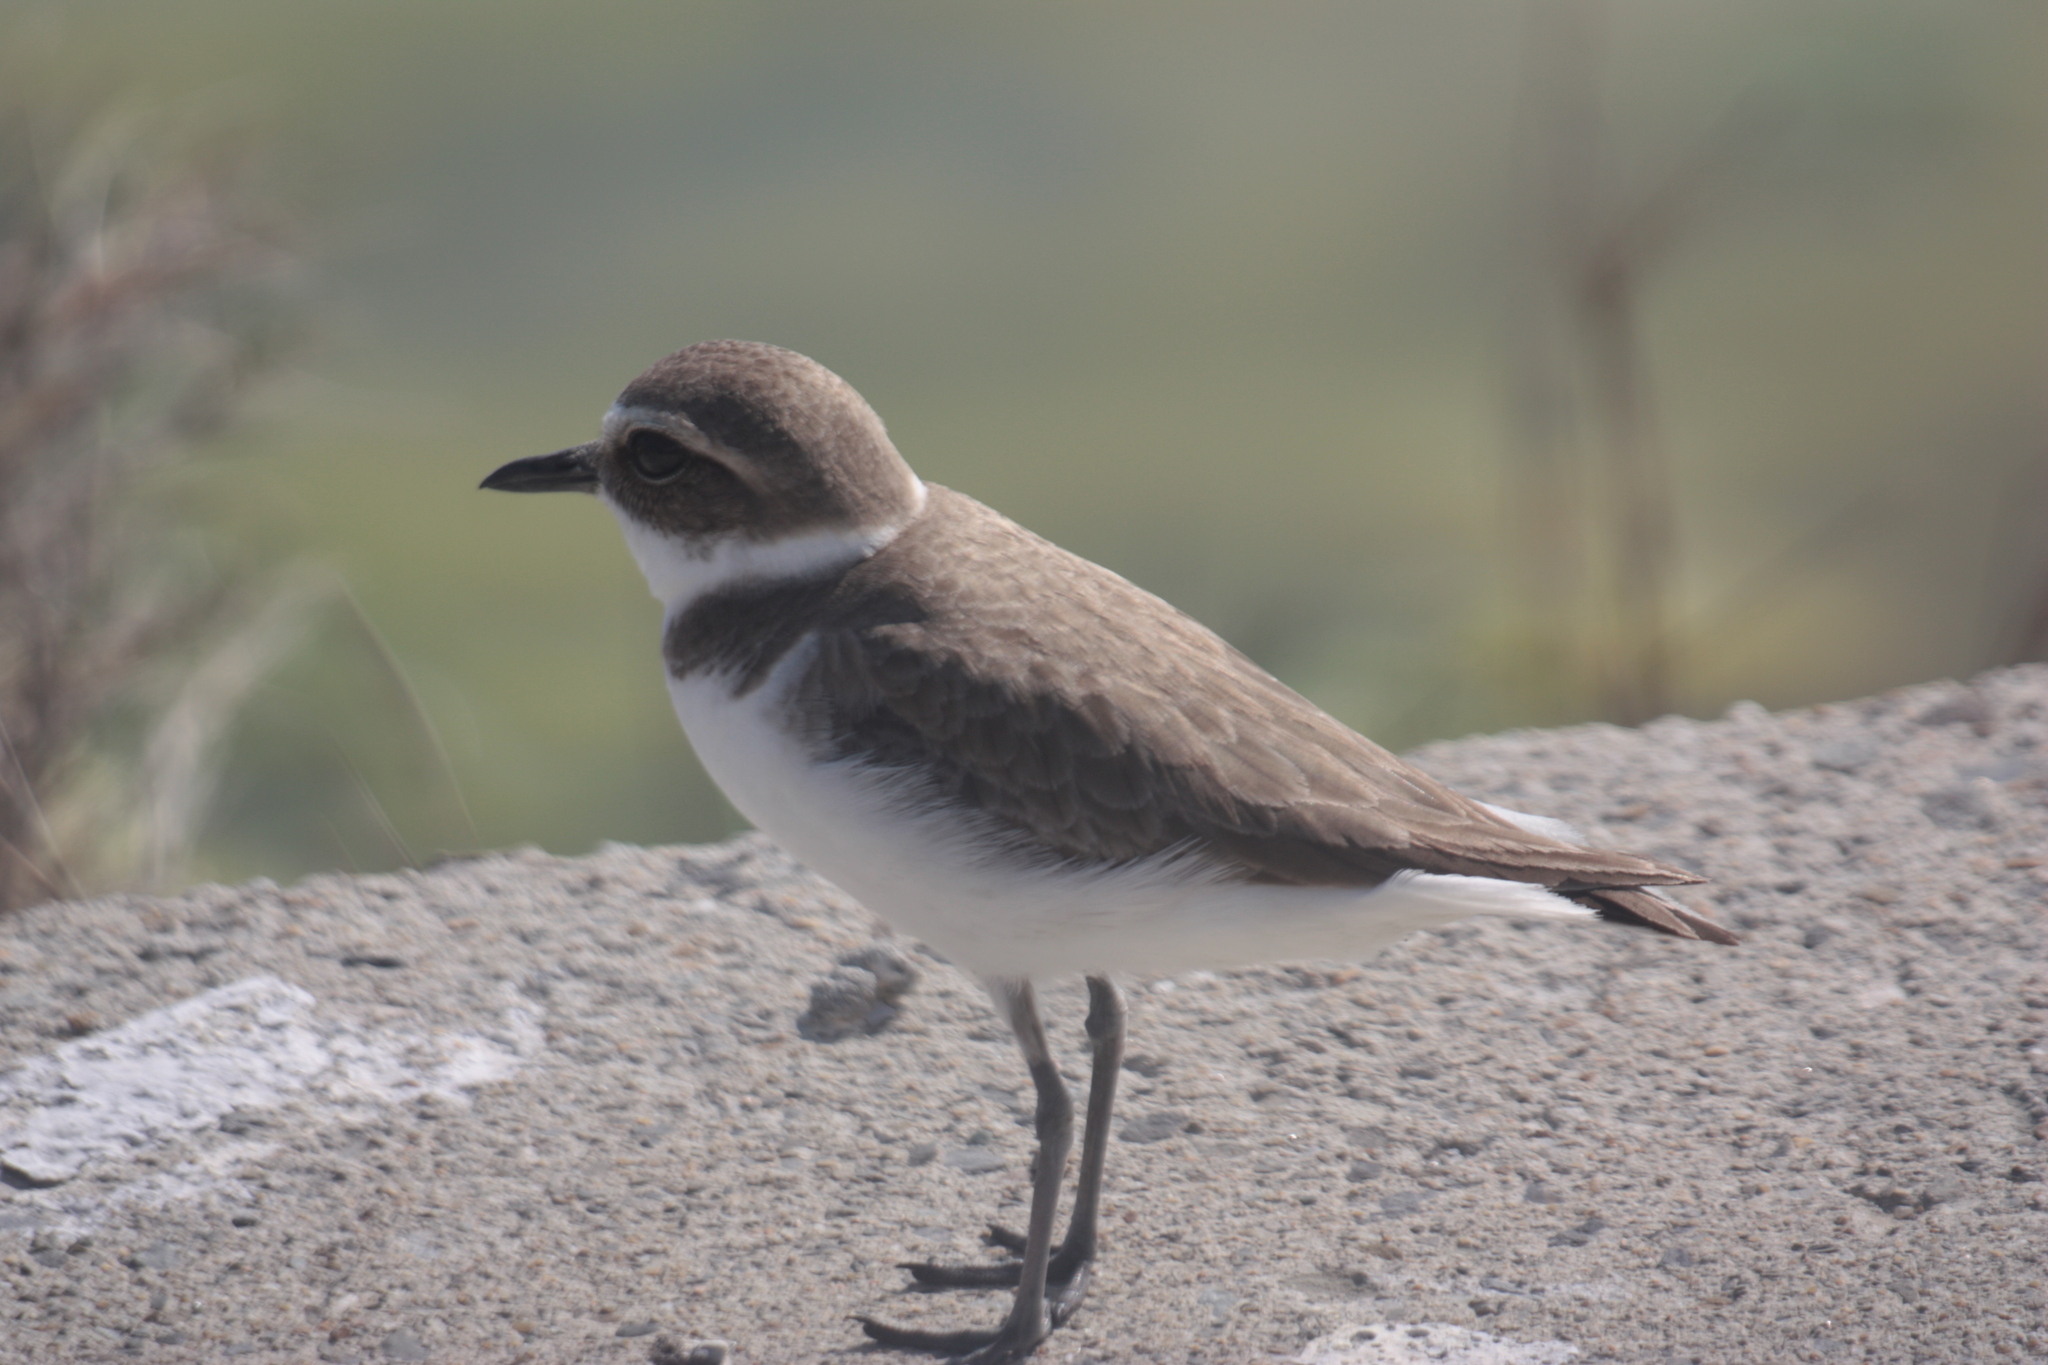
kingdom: Animalia
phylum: Chordata
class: Aves
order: Charadriiformes
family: Charadriidae
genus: Charadrius
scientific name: Charadrius alexandrinus
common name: Kentish plover
